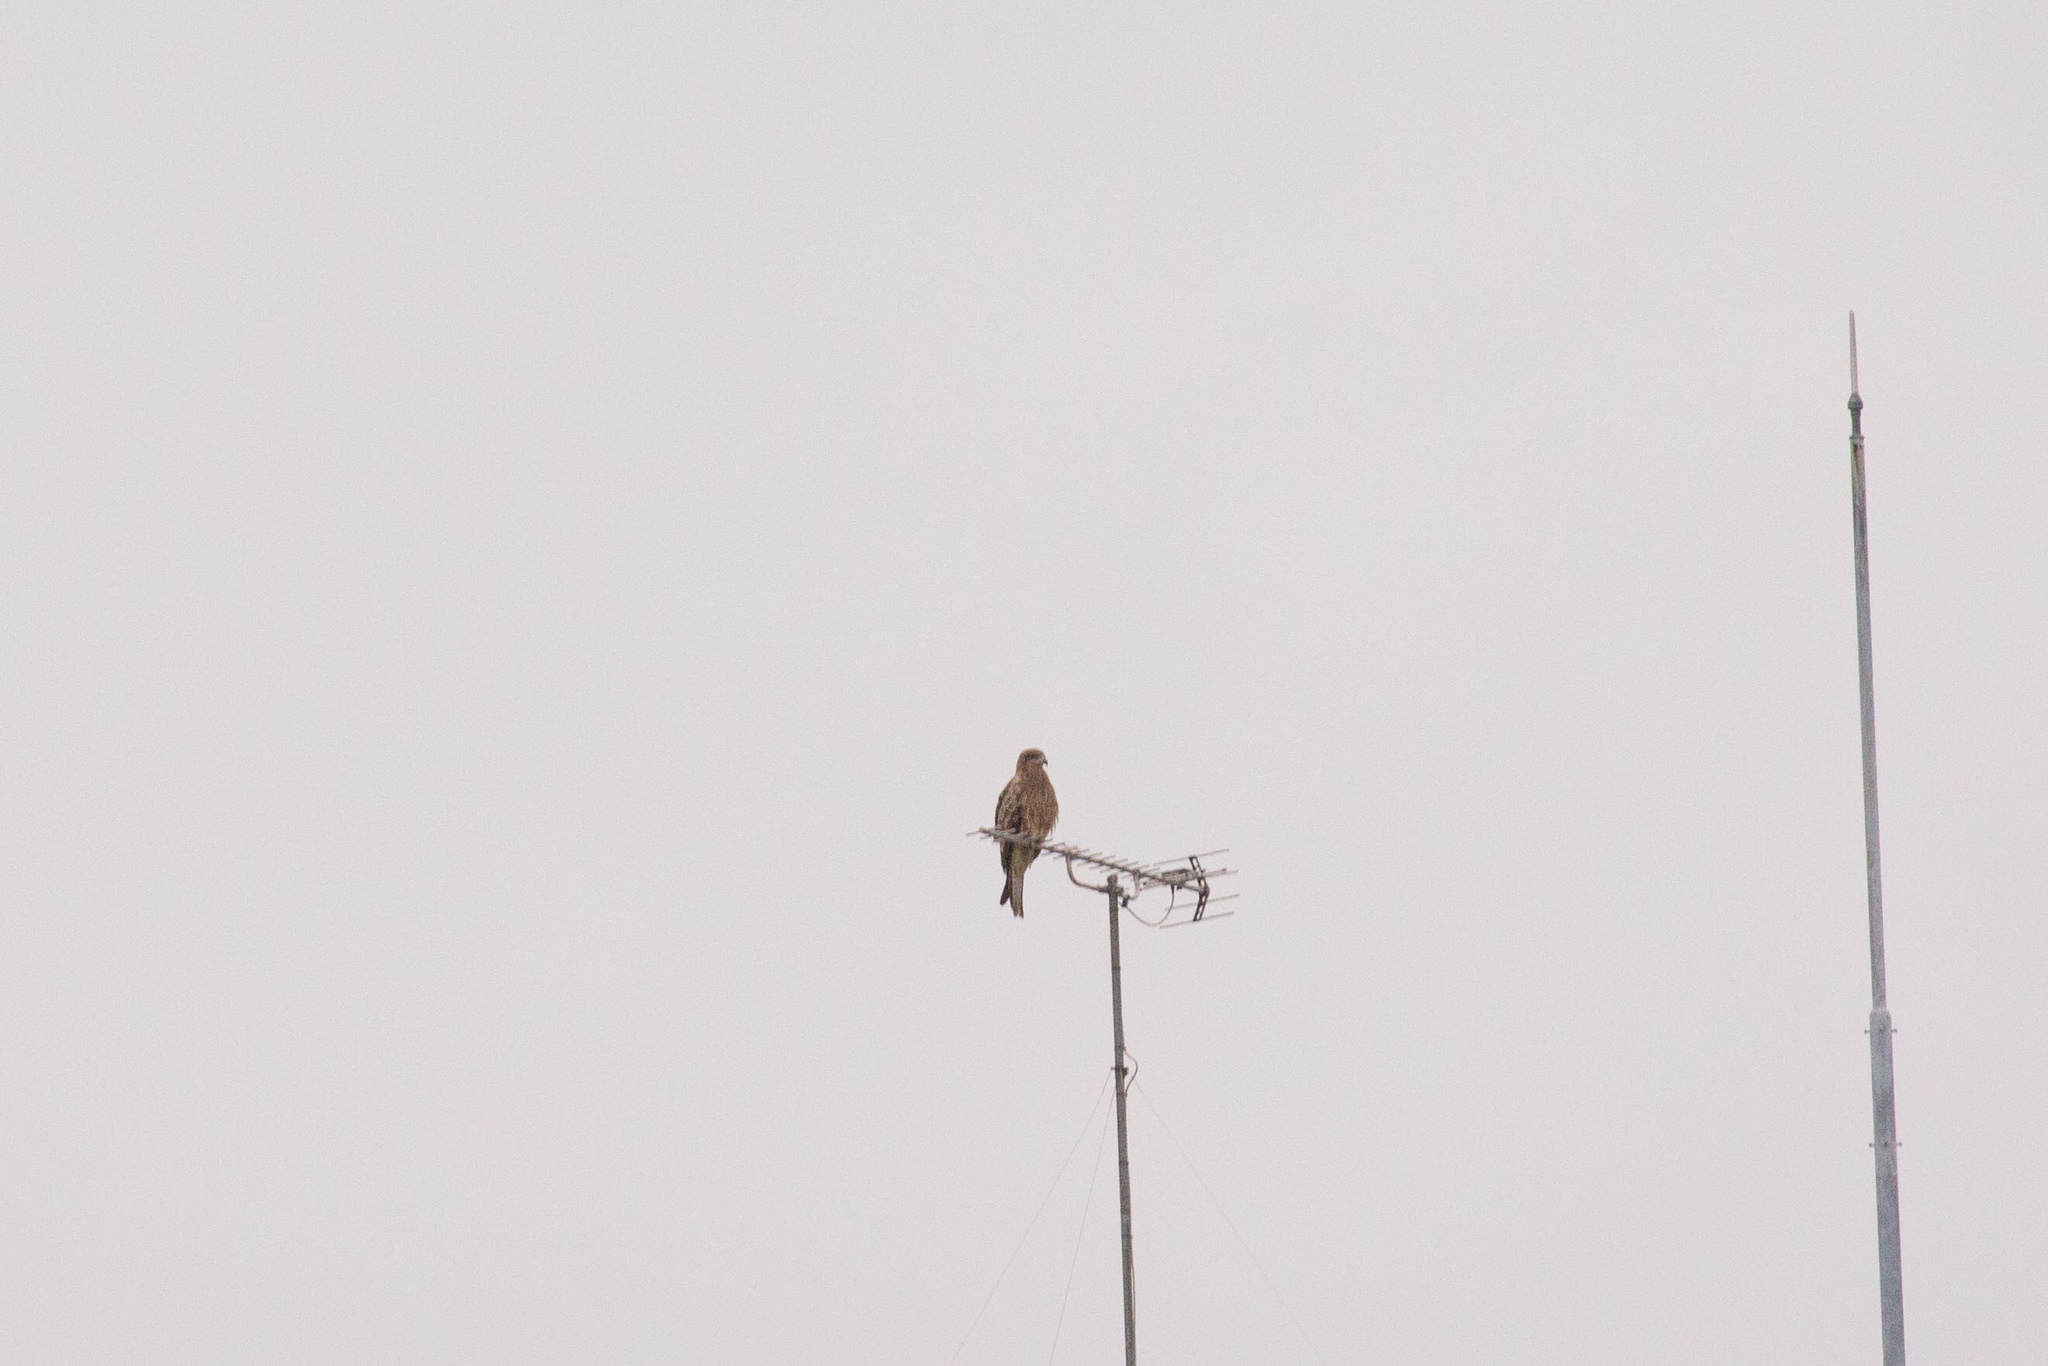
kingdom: Animalia
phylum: Chordata
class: Aves
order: Accipitriformes
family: Accipitridae
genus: Milvus
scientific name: Milvus migrans
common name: Black kite
